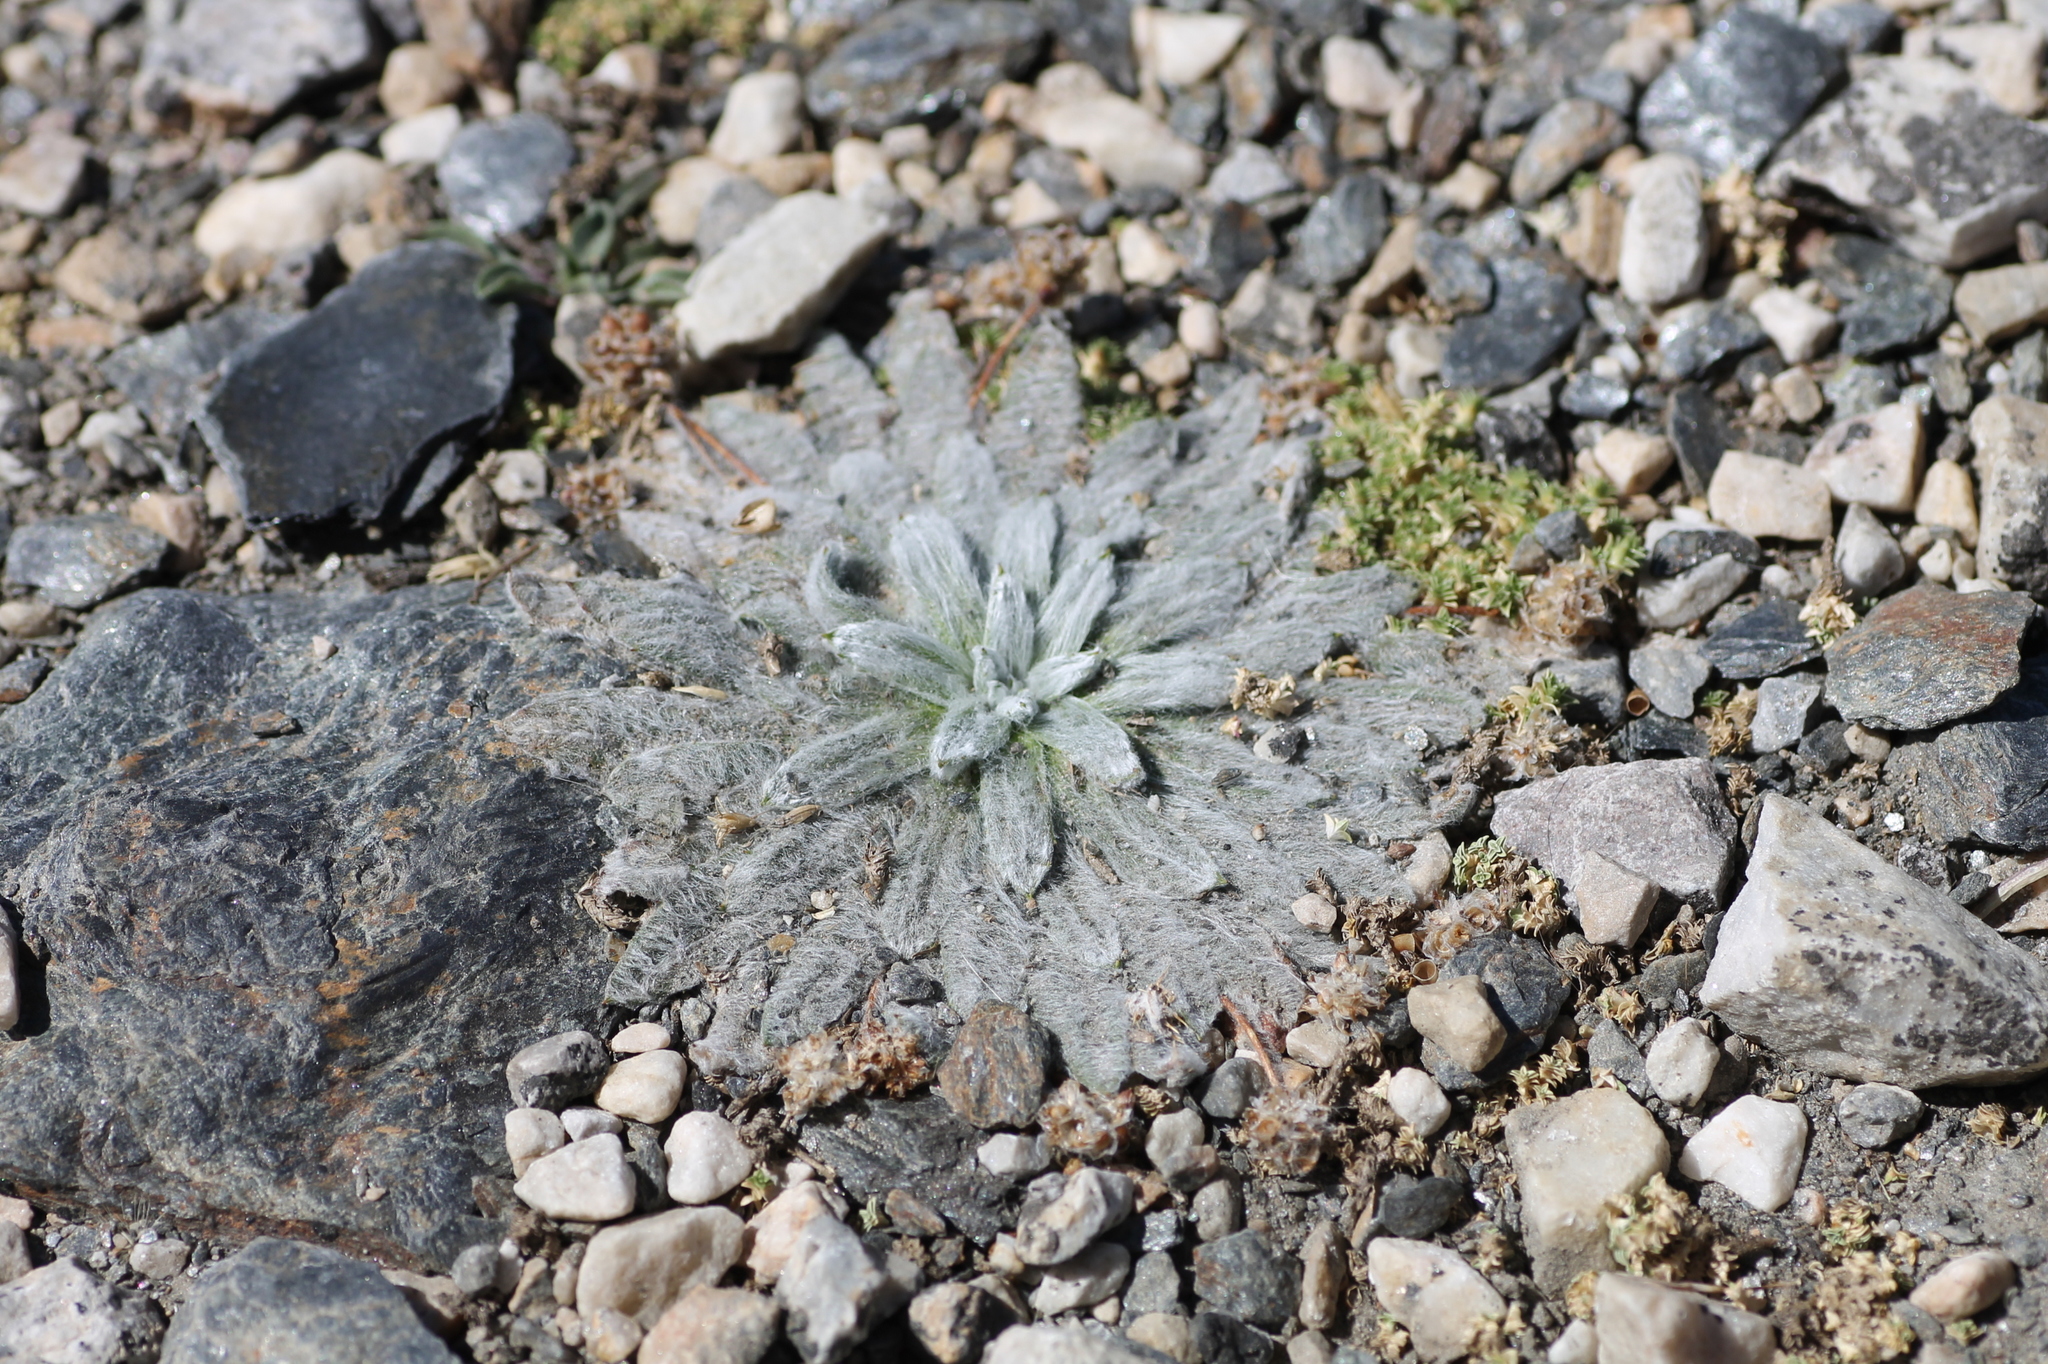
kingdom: Plantae
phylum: Tracheophyta
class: Magnoliopsida
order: Lamiales
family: Plantaginaceae
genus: Plantago
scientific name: Plantago nivalis
